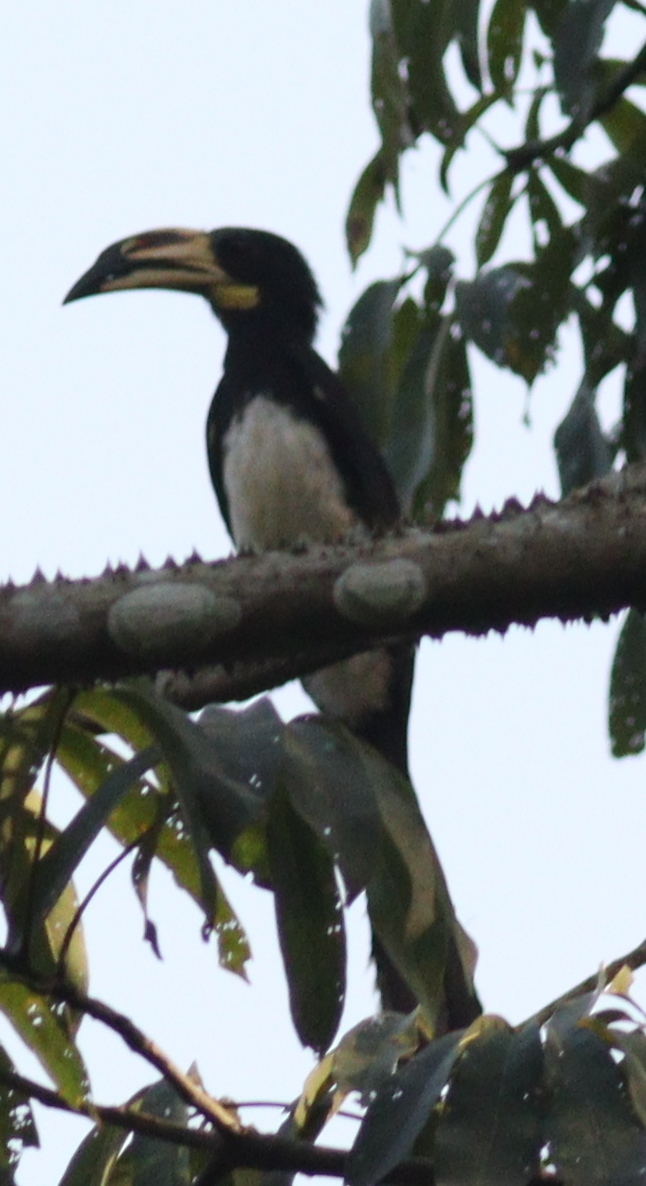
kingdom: Animalia
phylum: Chordata
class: Aves
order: Bucerotiformes
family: Bucerotidae
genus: Lophoceros
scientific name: Lophoceros fasciatus
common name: African pied hornbill
